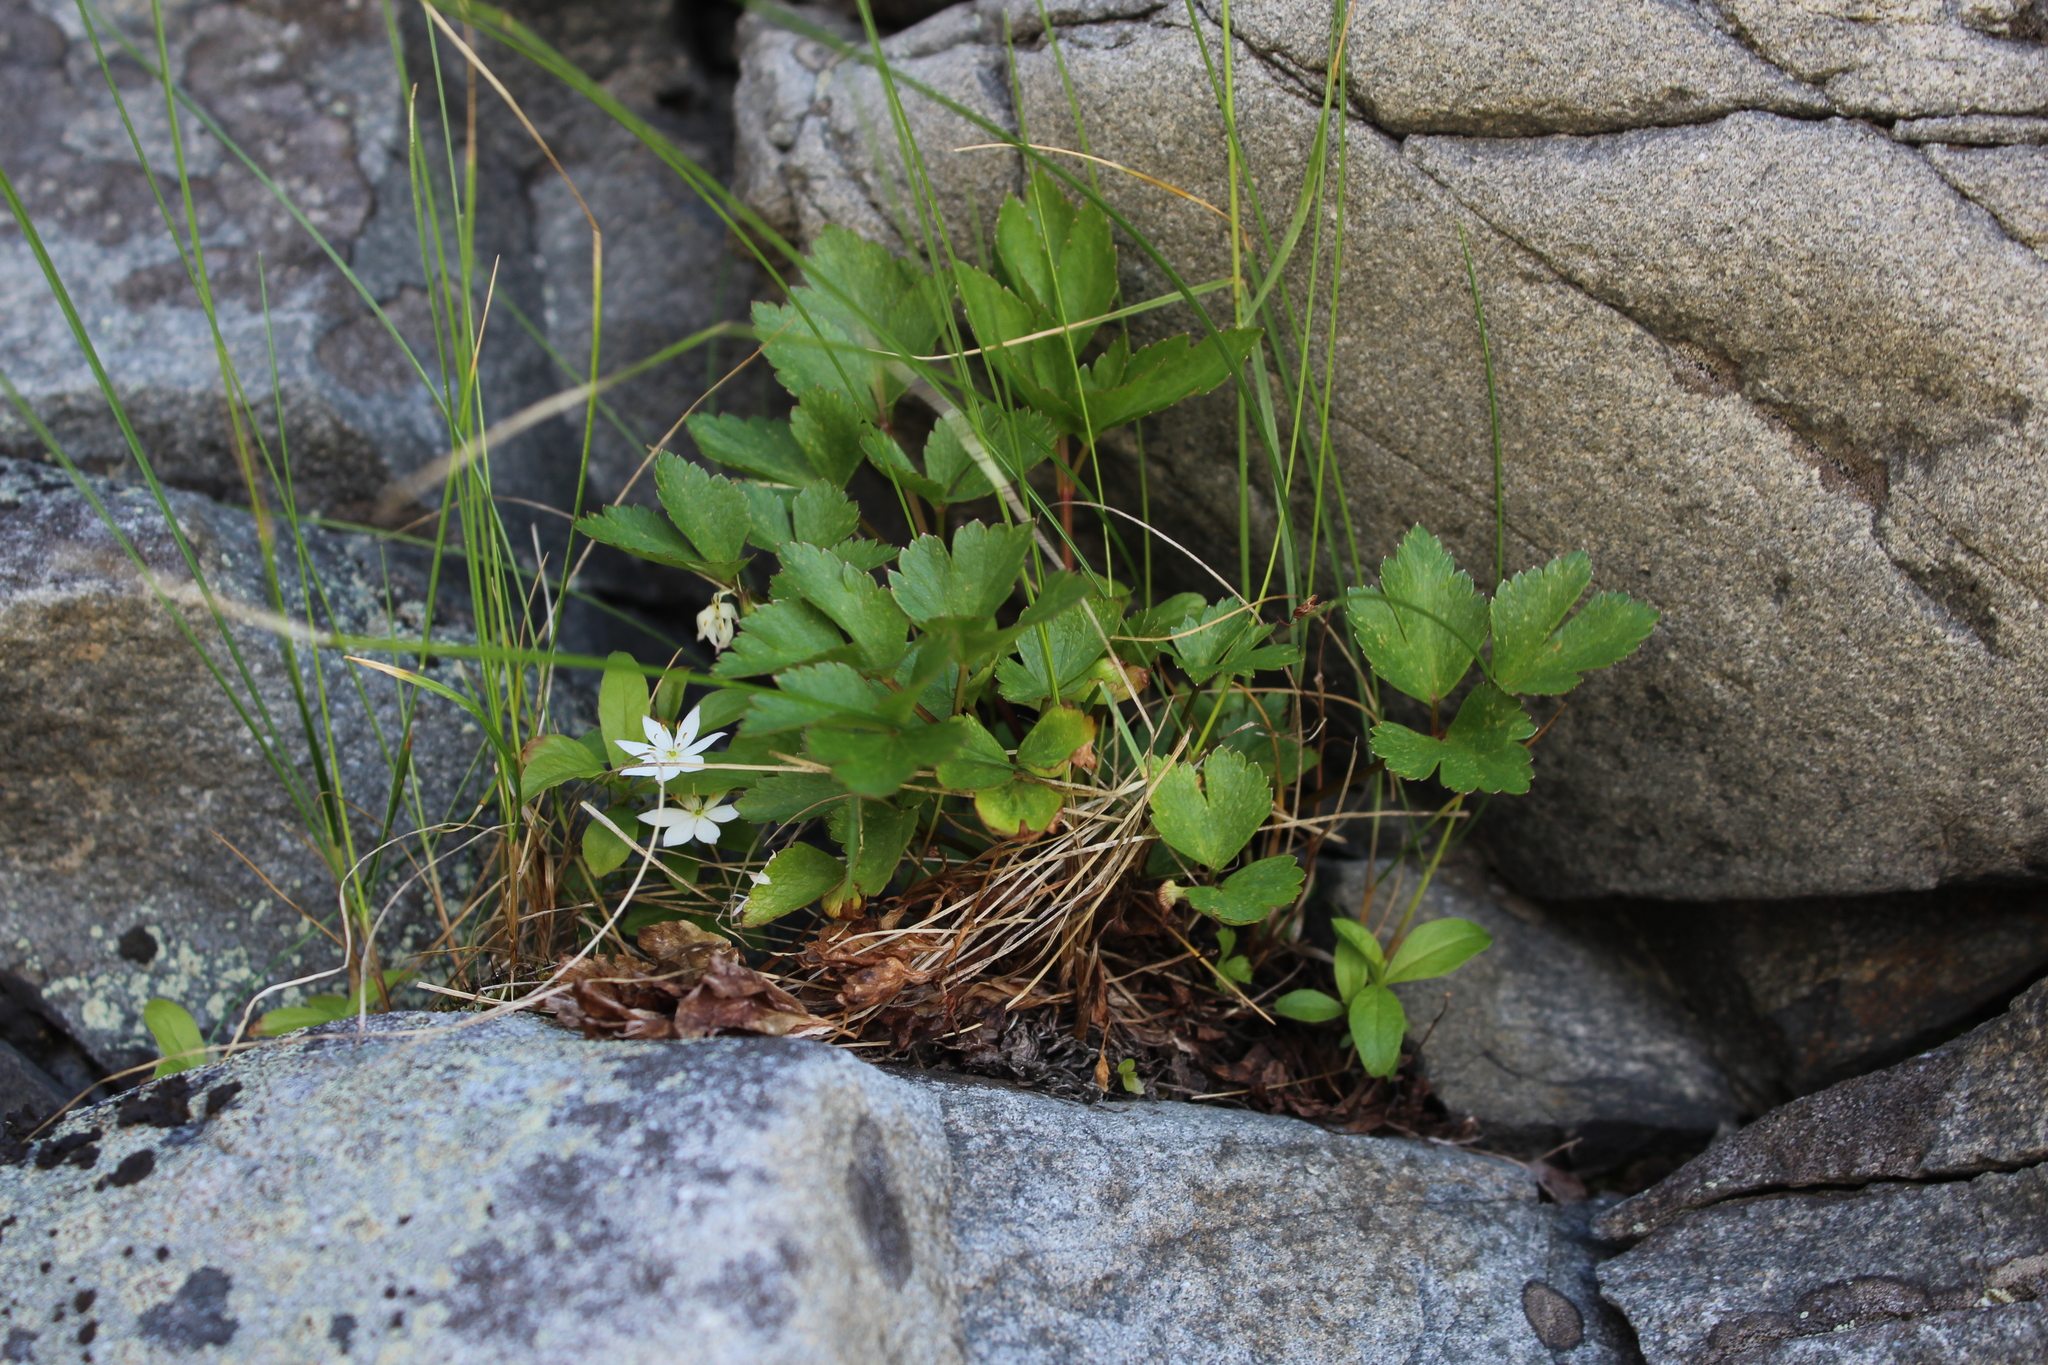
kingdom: Plantae
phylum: Tracheophyta
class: Magnoliopsida
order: Ericales
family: Primulaceae
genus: Lysimachia
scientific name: Lysimachia europaea
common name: Arctic starflower
